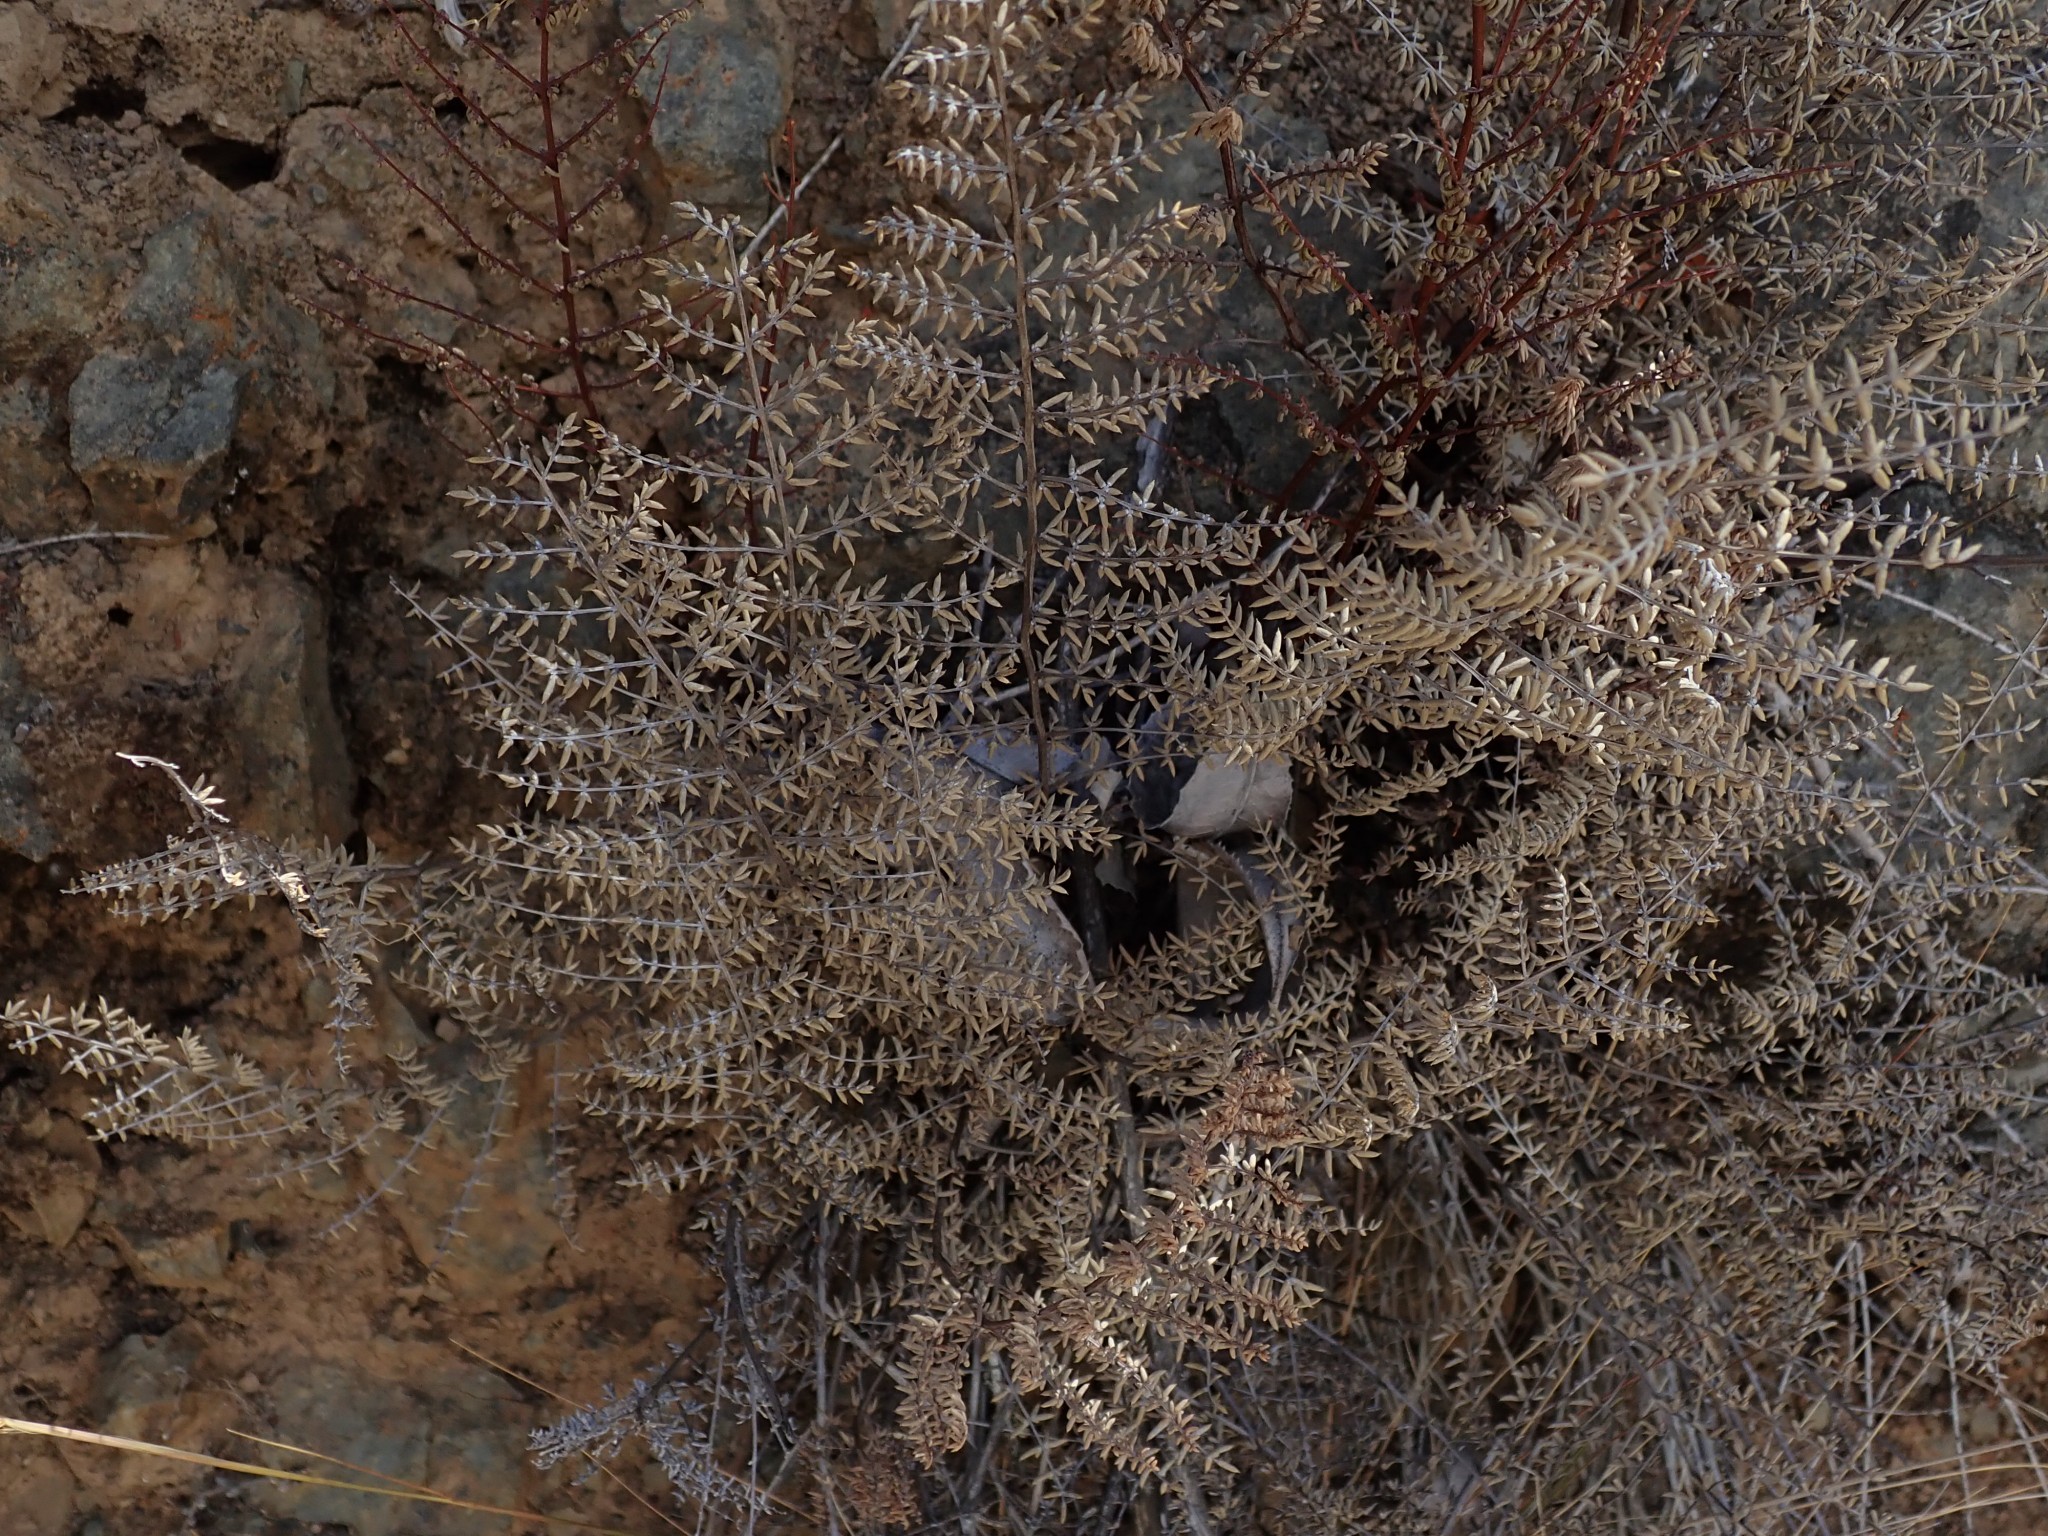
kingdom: Plantae
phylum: Tracheophyta
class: Polypodiopsida
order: Polypodiales
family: Pteridaceae
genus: Pellaea
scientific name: Pellaea mucronata
